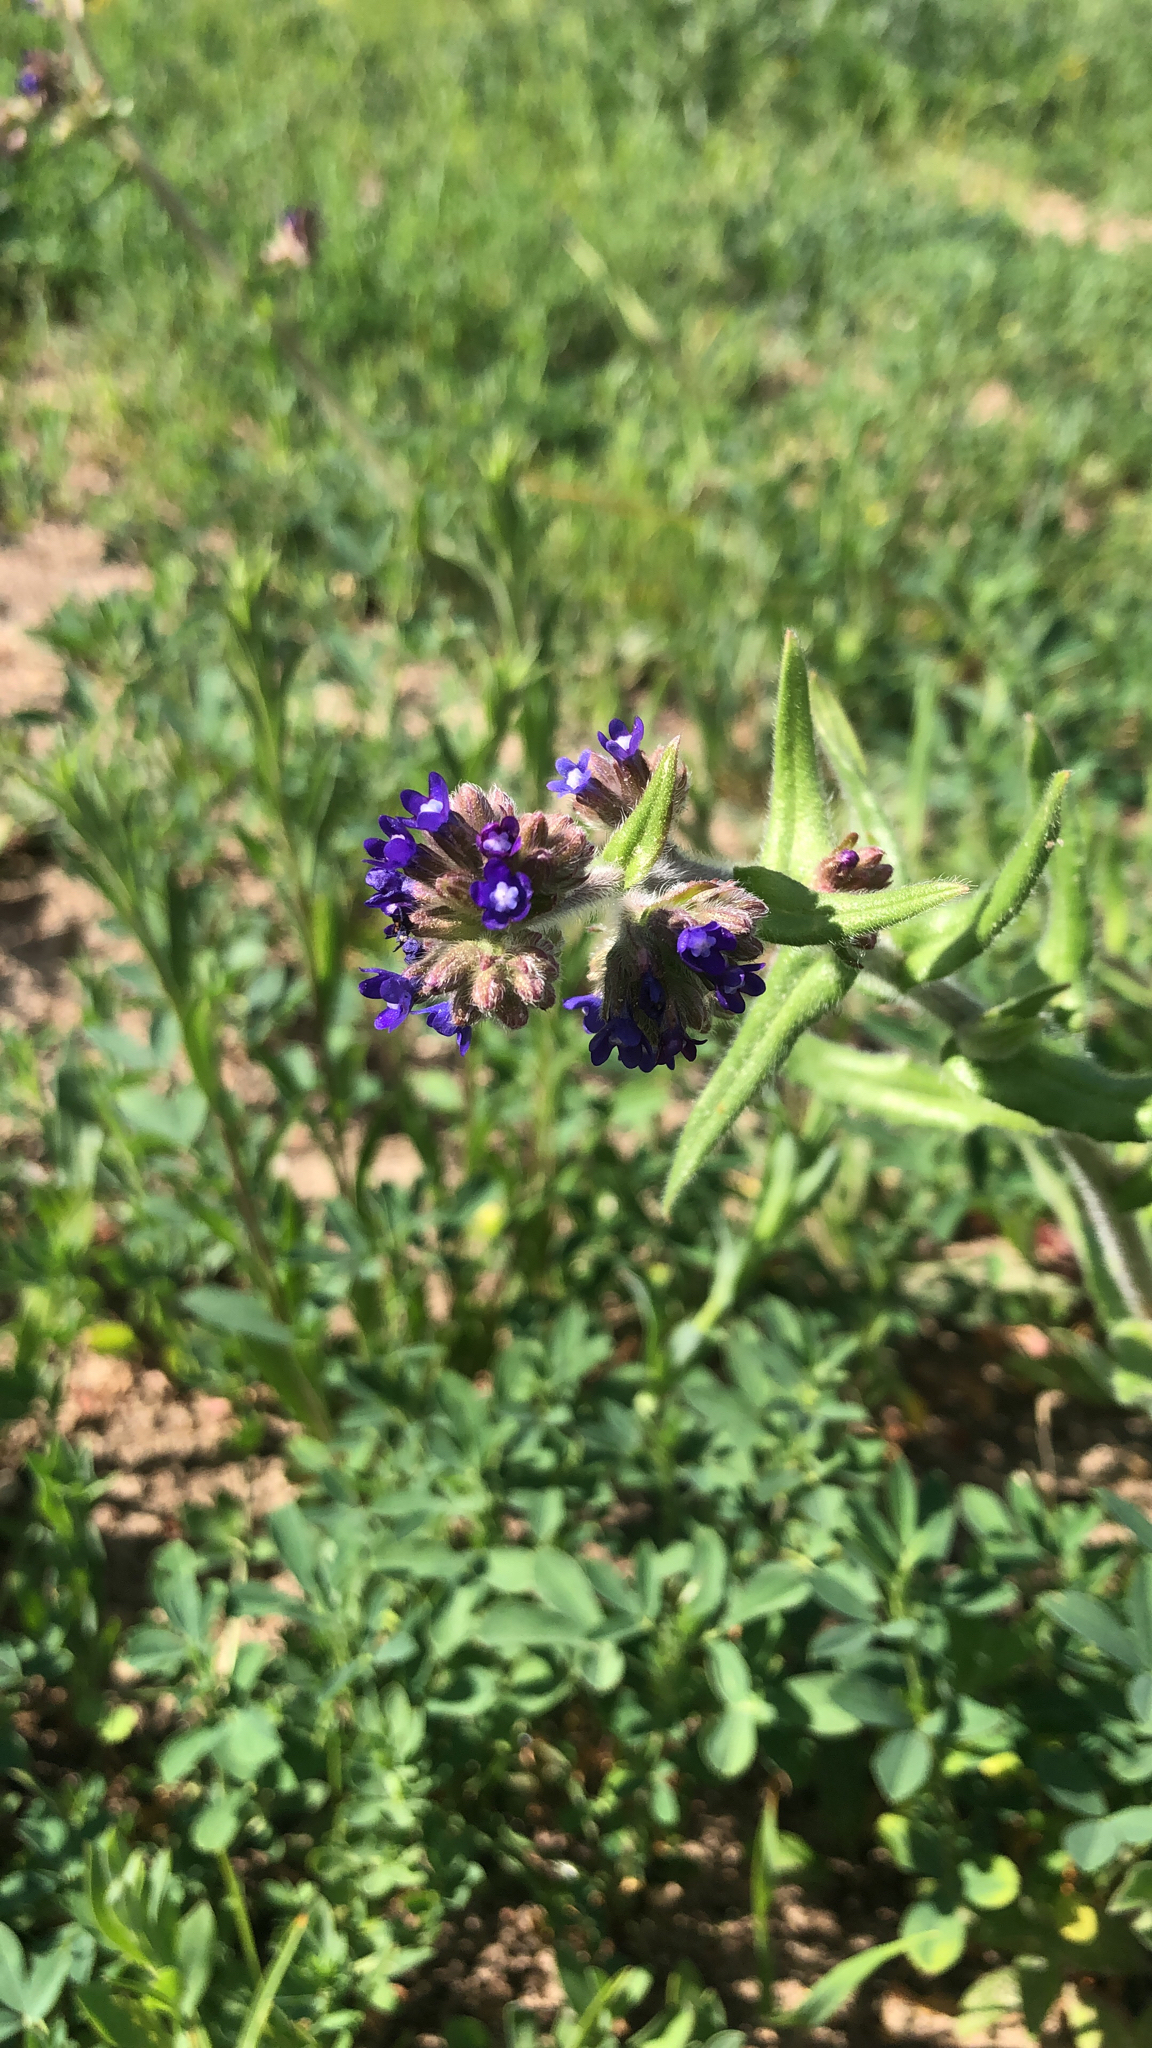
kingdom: Plantae
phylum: Tracheophyta
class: Magnoliopsida
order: Boraginales
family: Boraginaceae
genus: Anchusa
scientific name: Anchusa officinalis
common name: Alkanet
